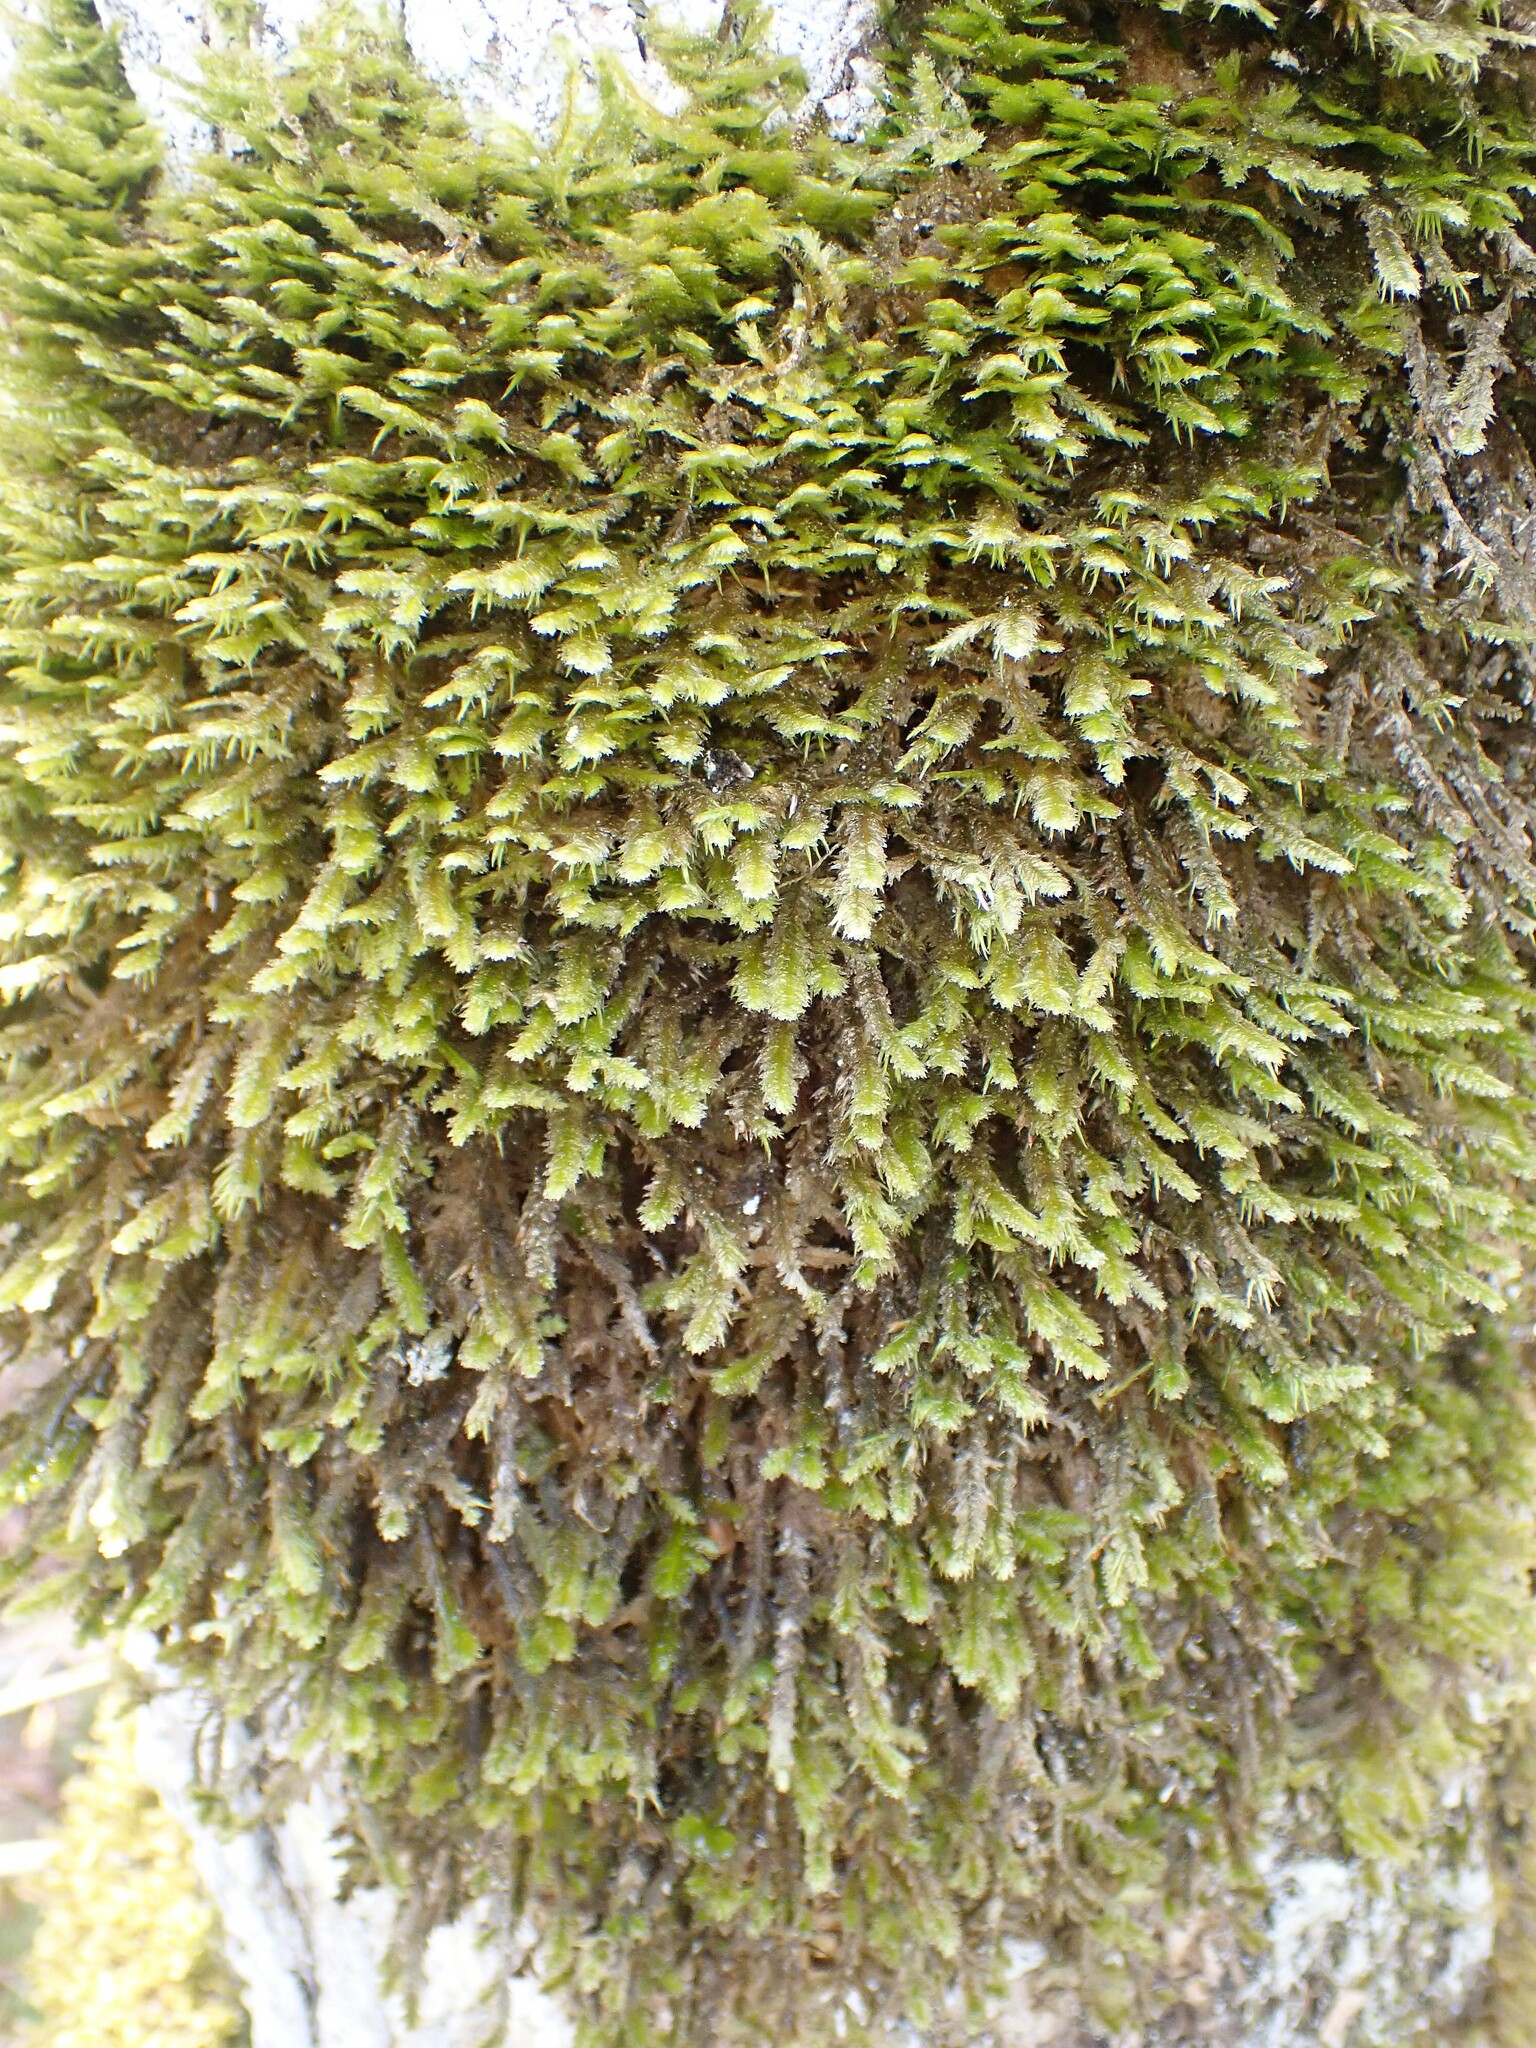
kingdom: Plantae
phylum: Bryophyta
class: Bryopsida
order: Hypnales
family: Neckeraceae
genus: Neckera
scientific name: Neckera pennata
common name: Feathery neckera
